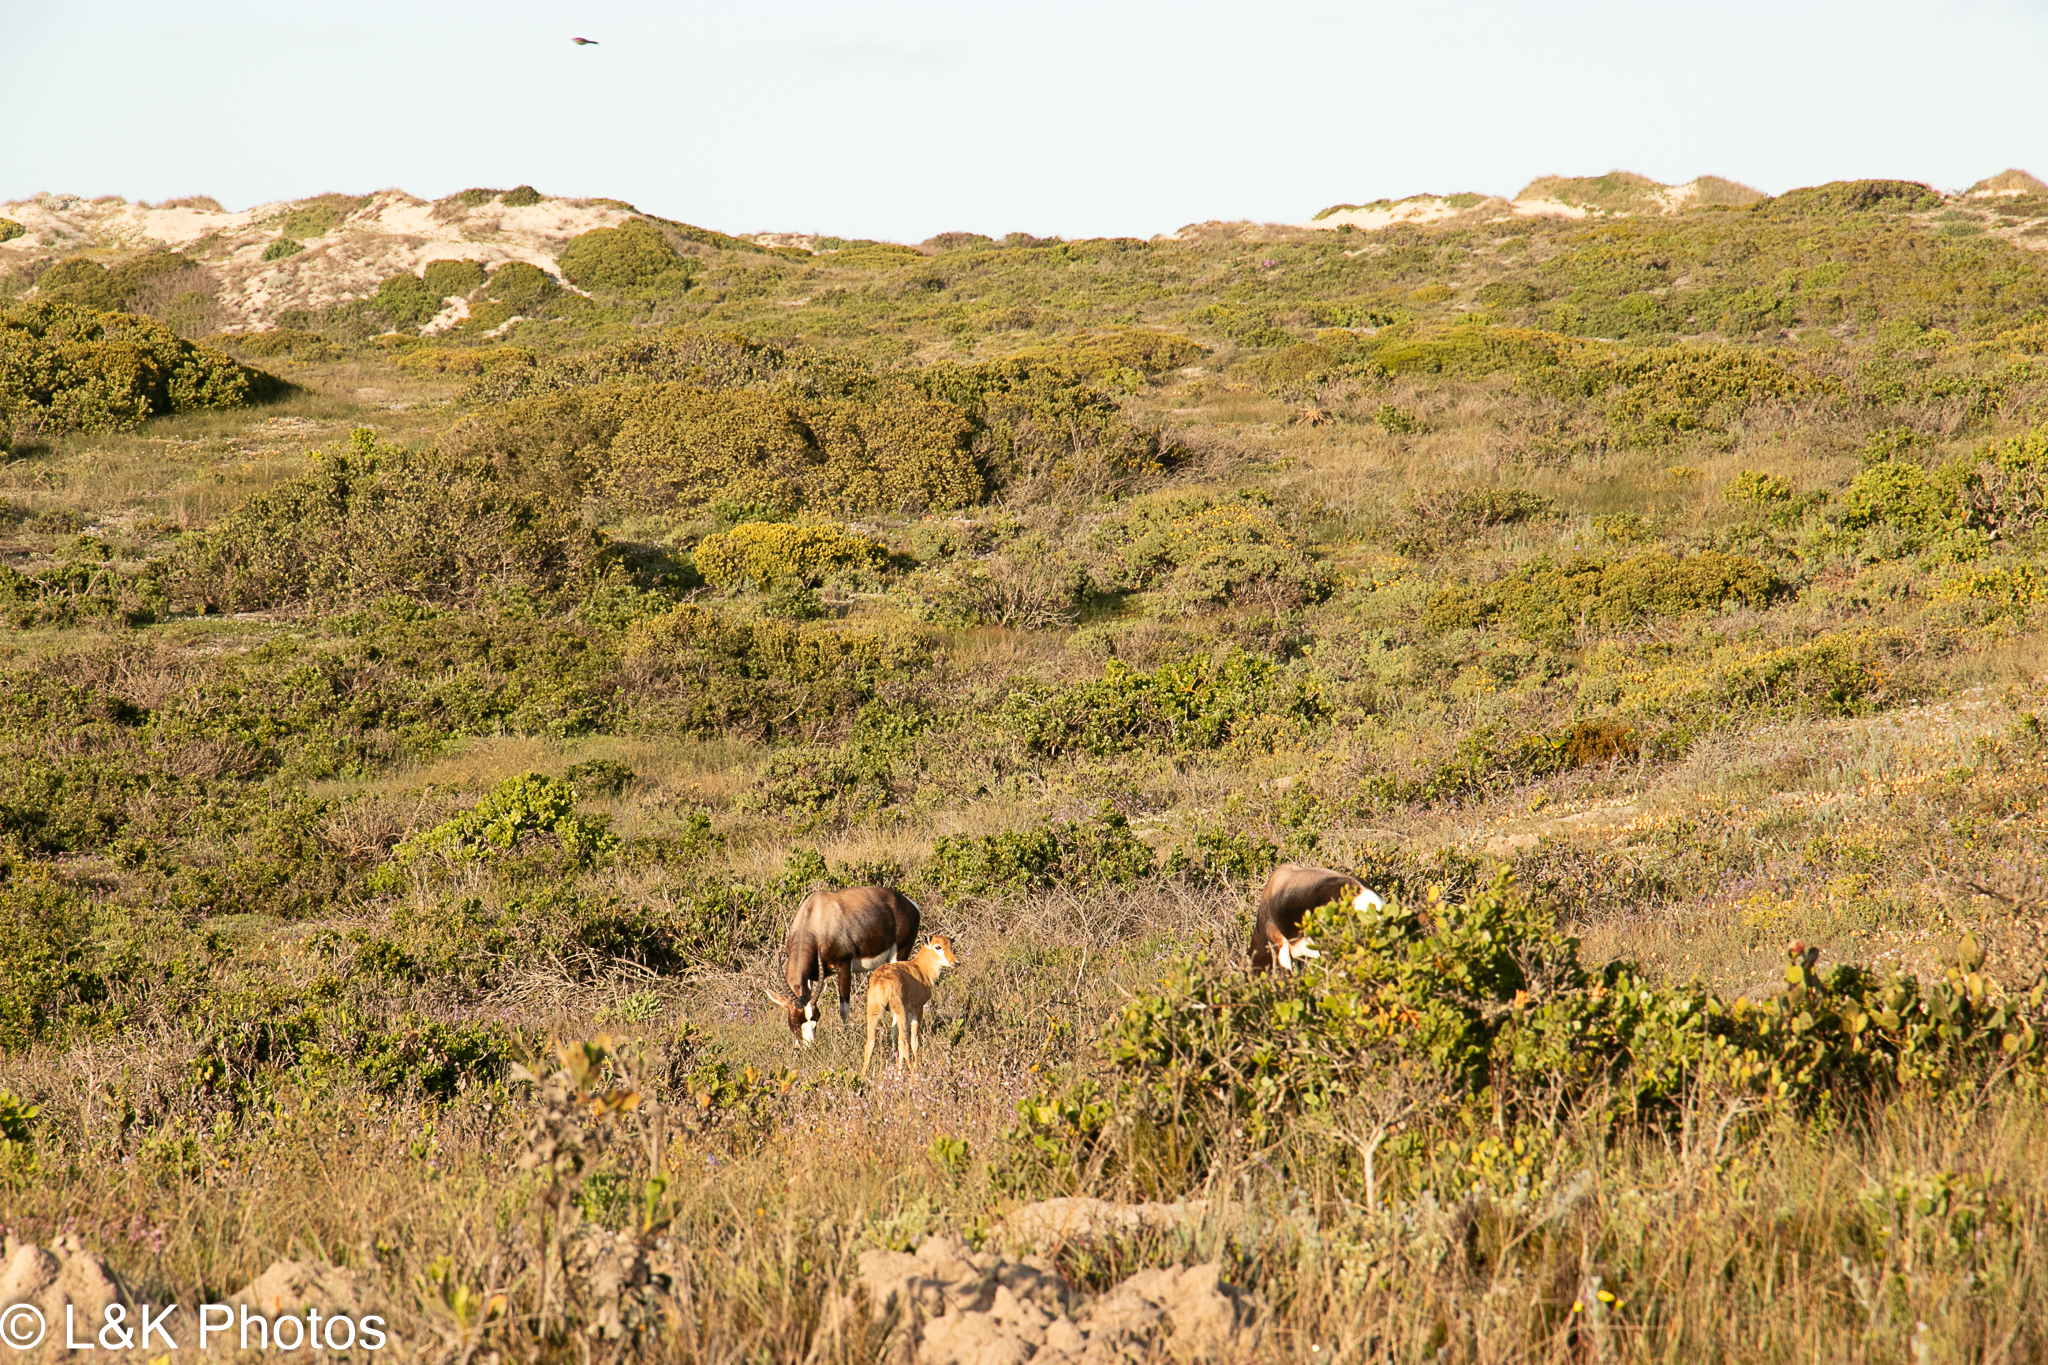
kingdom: Animalia
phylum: Chordata
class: Mammalia
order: Artiodactyla
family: Bovidae
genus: Damaliscus
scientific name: Damaliscus pygargus
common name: Bontebok
